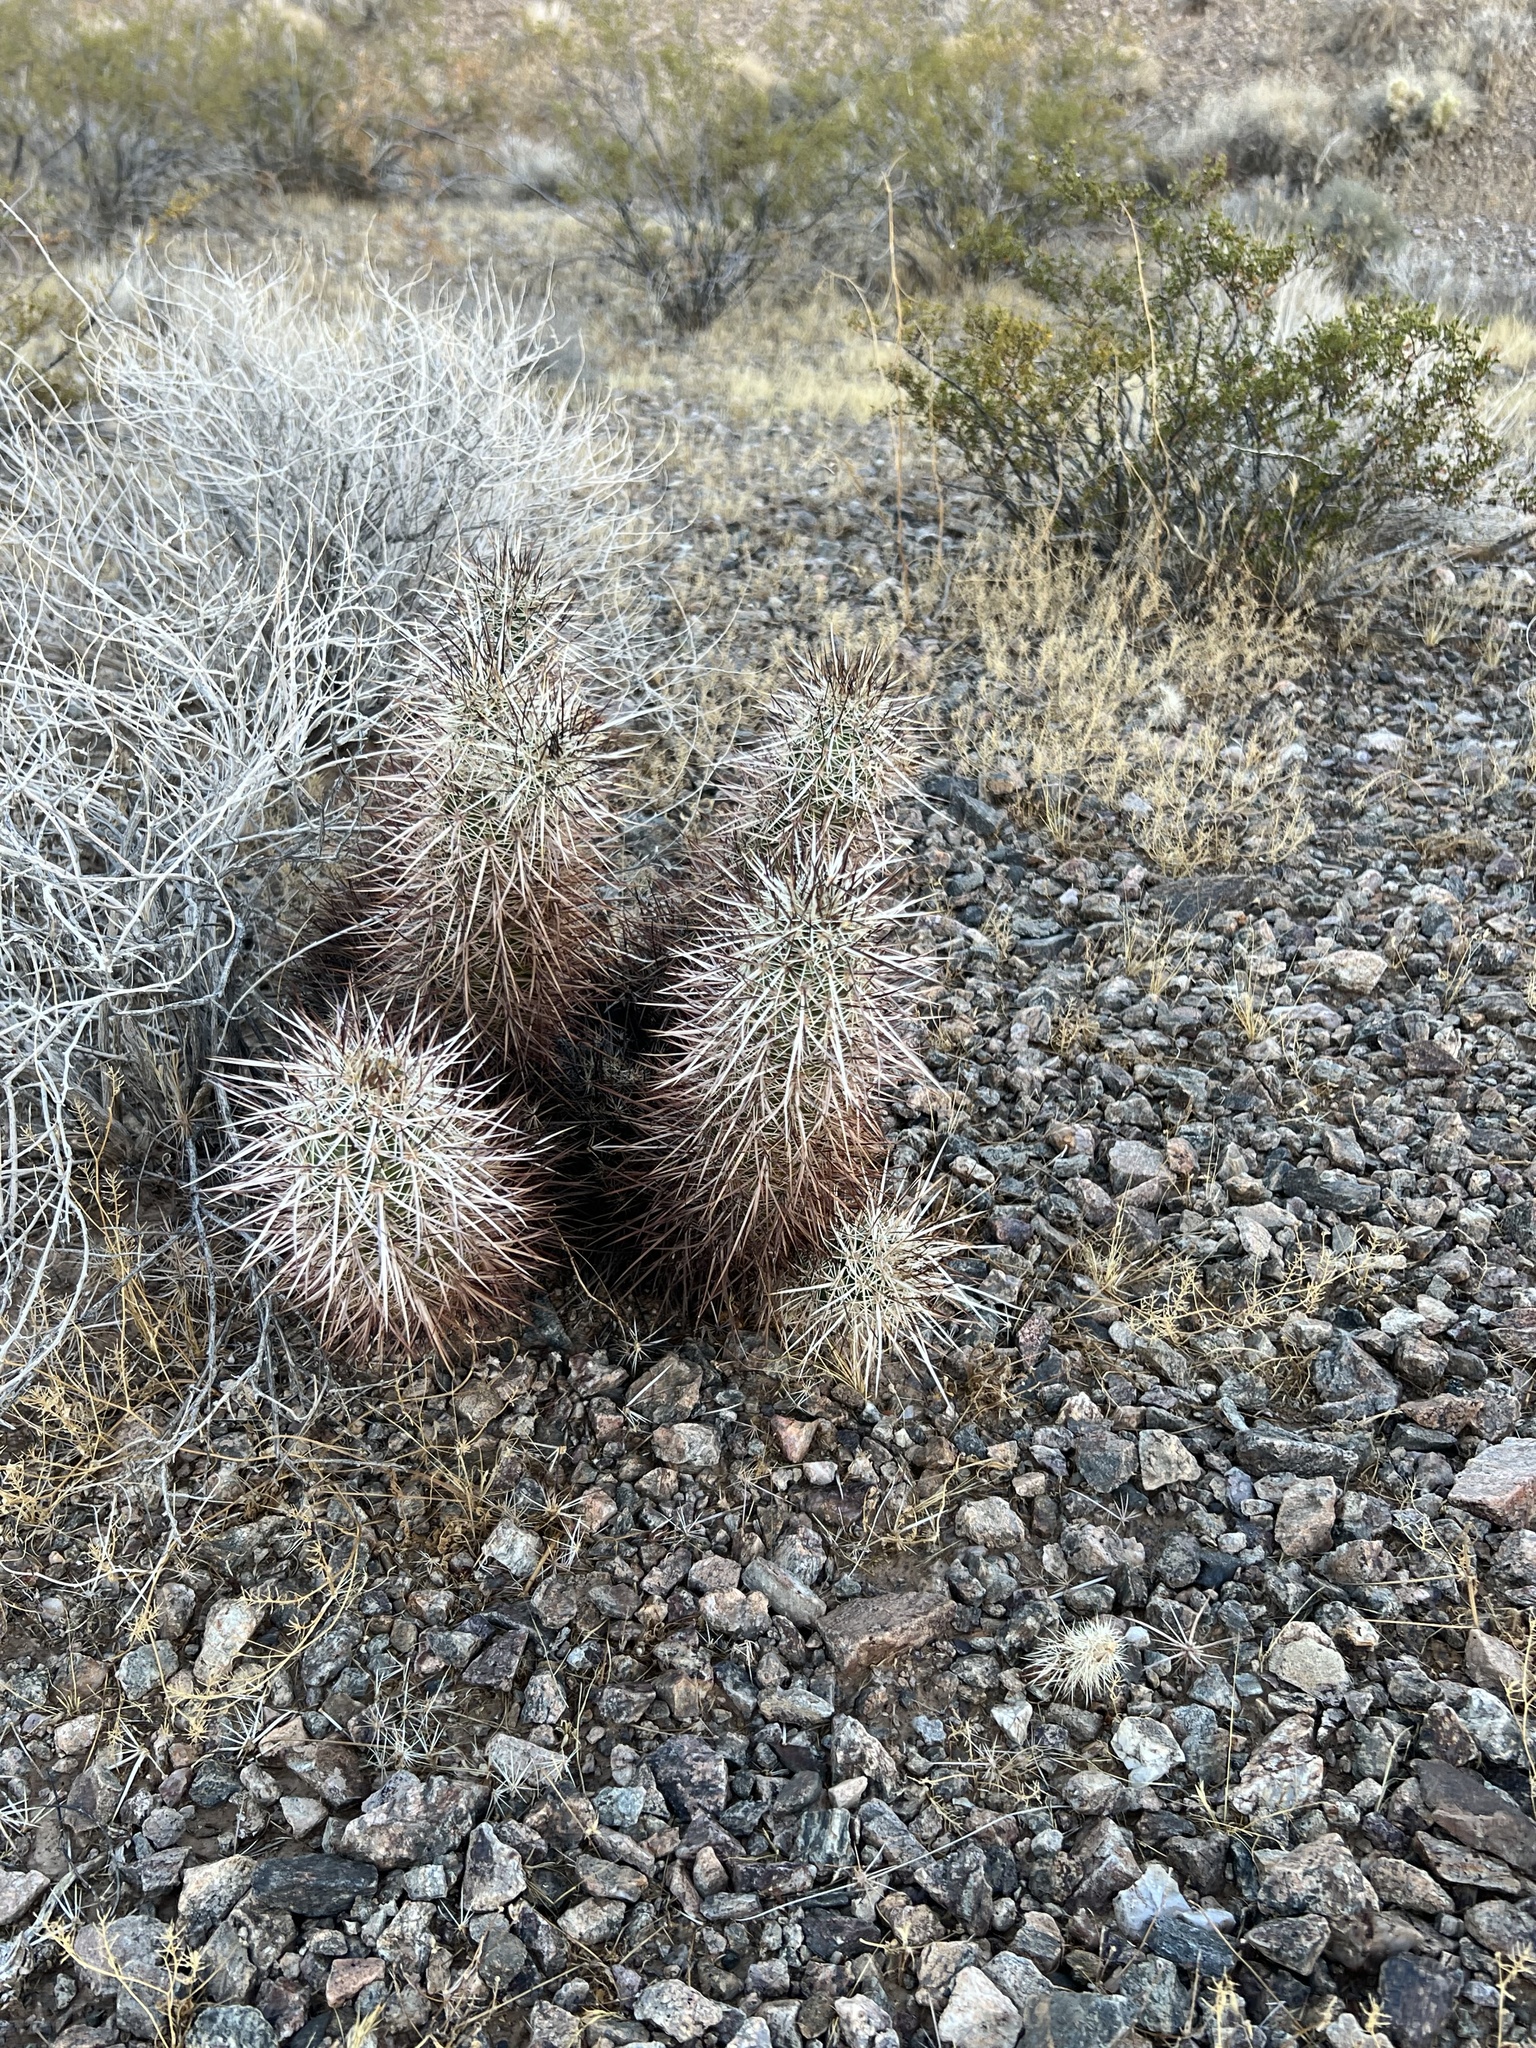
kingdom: Plantae
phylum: Tracheophyta
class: Magnoliopsida
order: Caryophyllales
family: Cactaceae
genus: Echinocereus
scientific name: Echinocereus engelmannii
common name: Engelmann's hedgehog cactus
